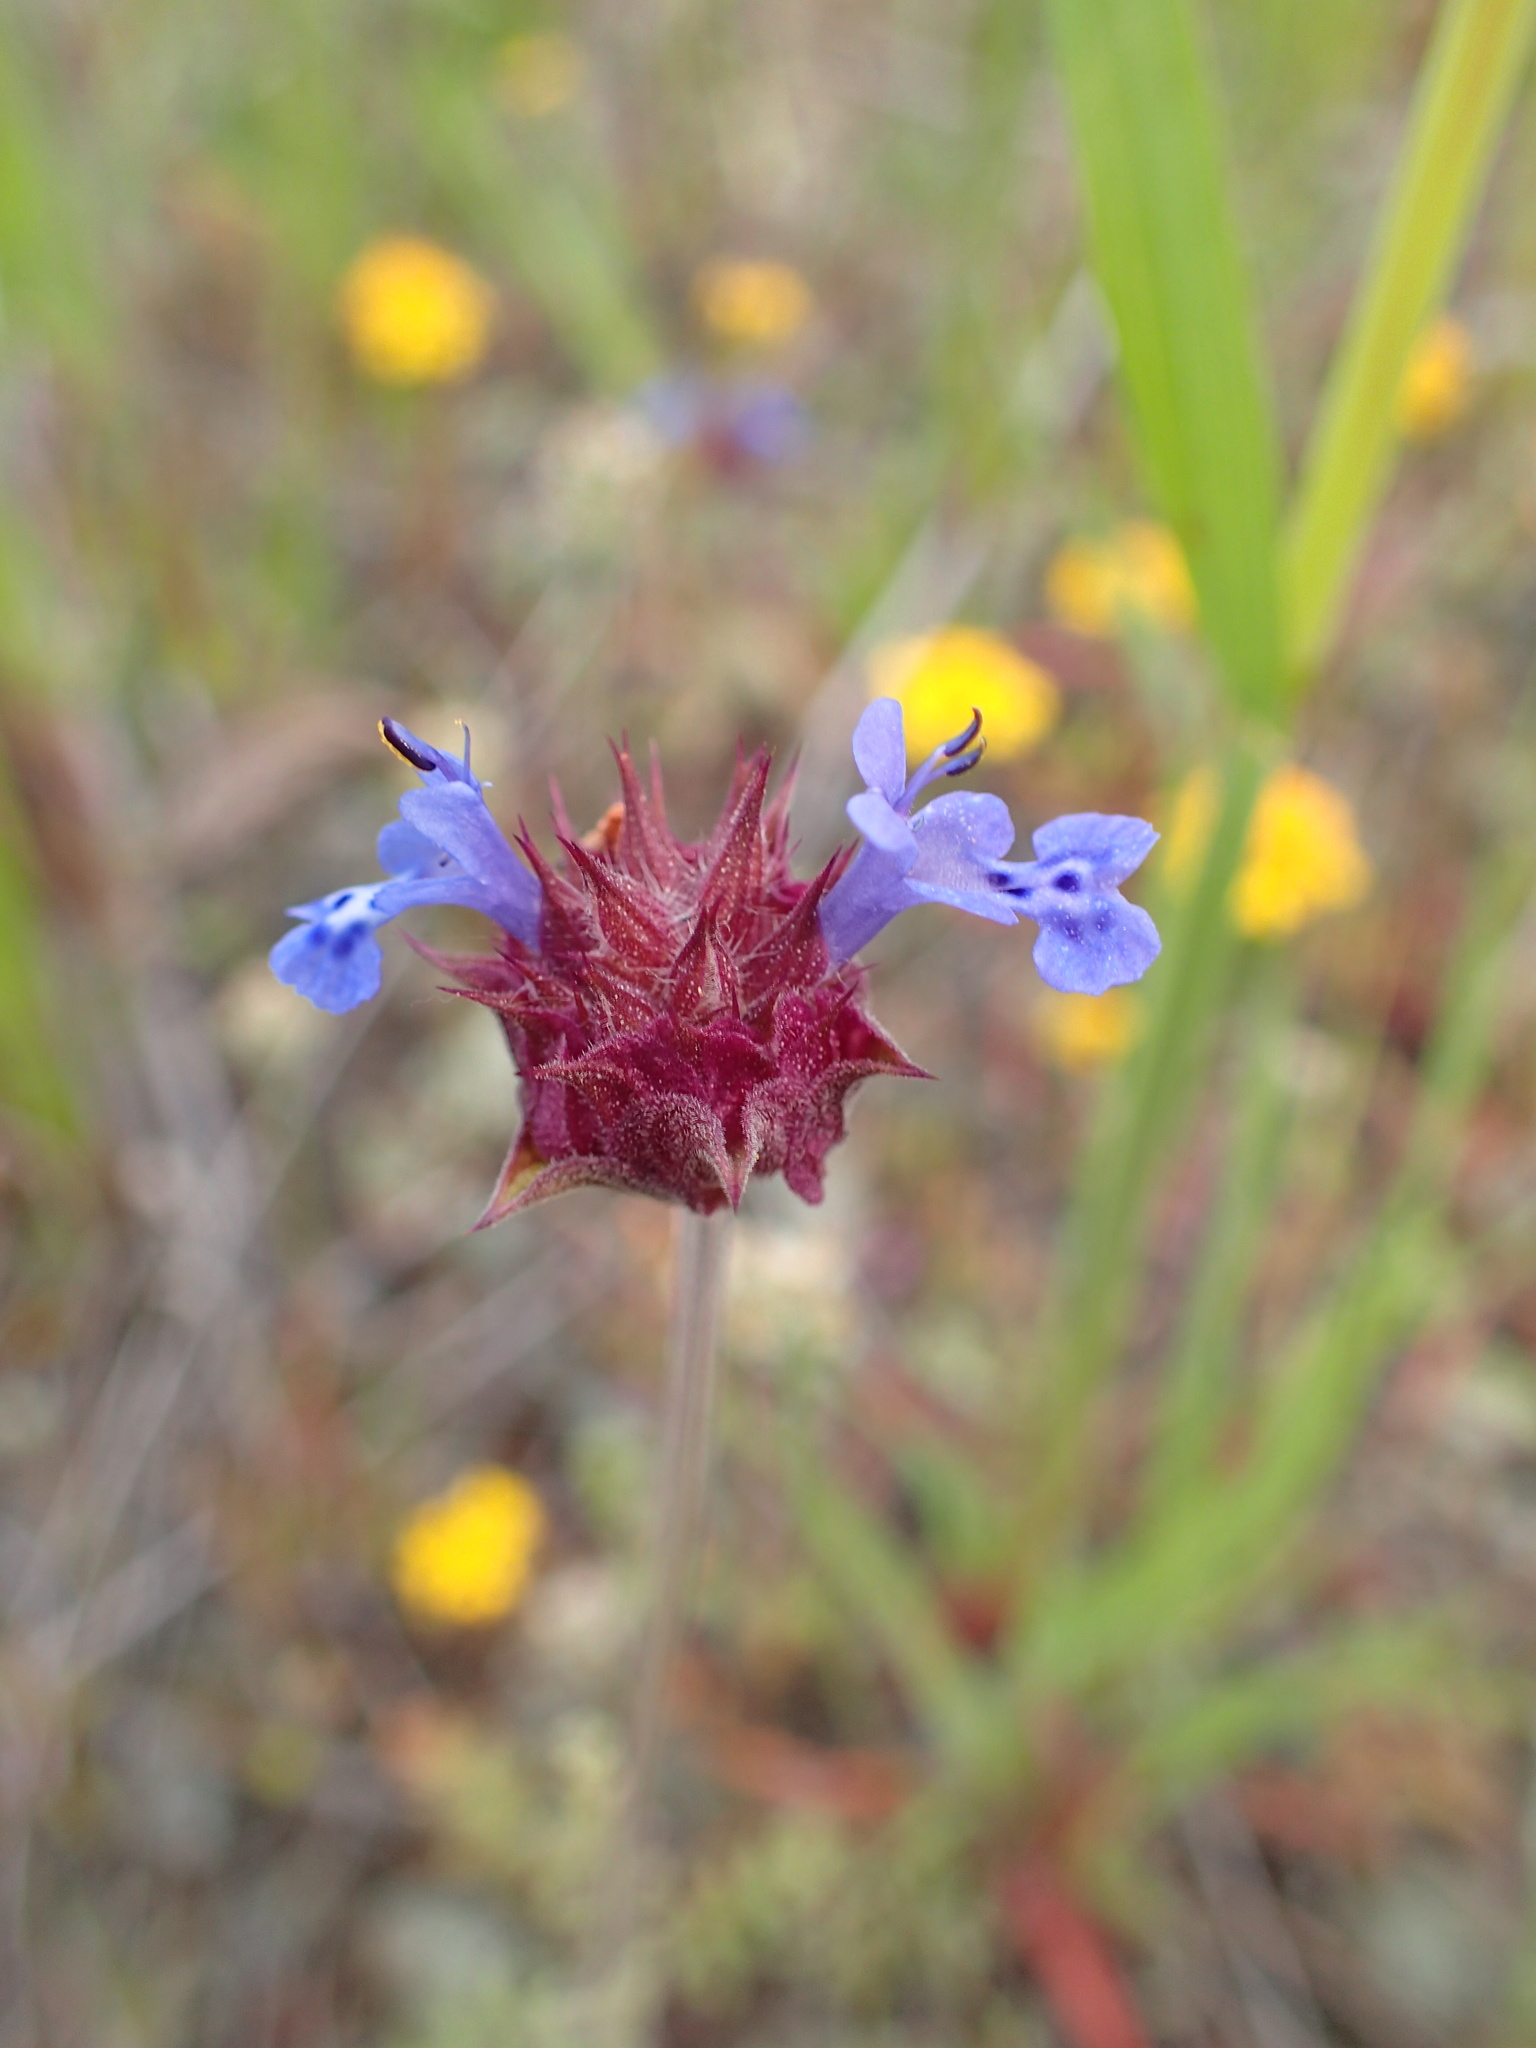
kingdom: Plantae
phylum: Tracheophyta
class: Magnoliopsida
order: Lamiales
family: Lamiaceae
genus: Salvia
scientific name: Salvia columbariae
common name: Chia
